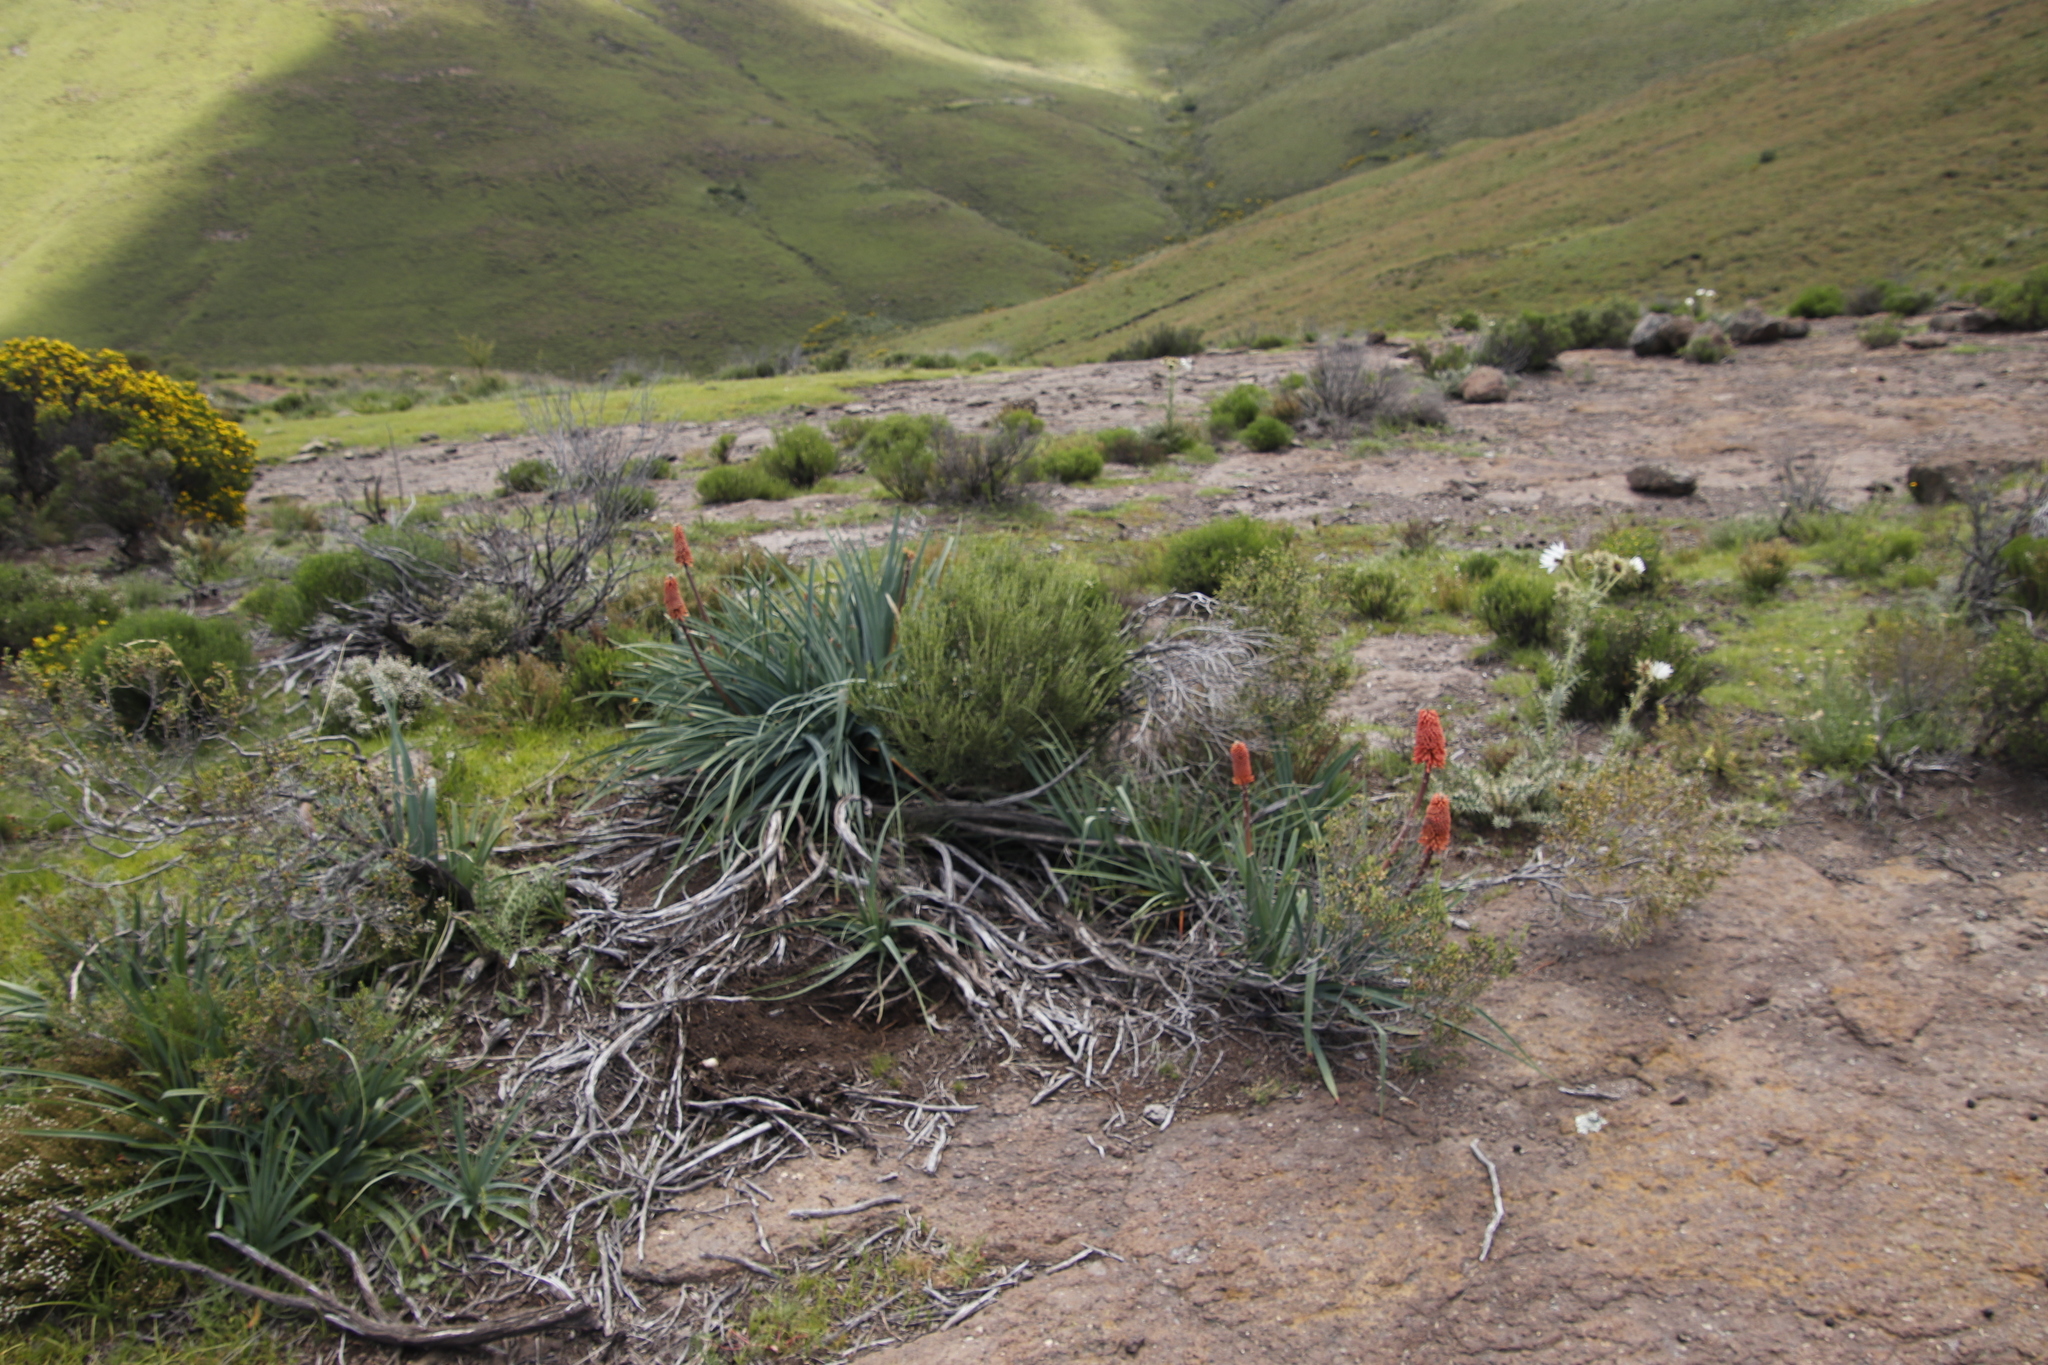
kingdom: Plantae
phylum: Tracheophyta
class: Liliopsida
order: Asparagales
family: Asphodelaceae
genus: Kniphofia
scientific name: Kniphofia caulescens
